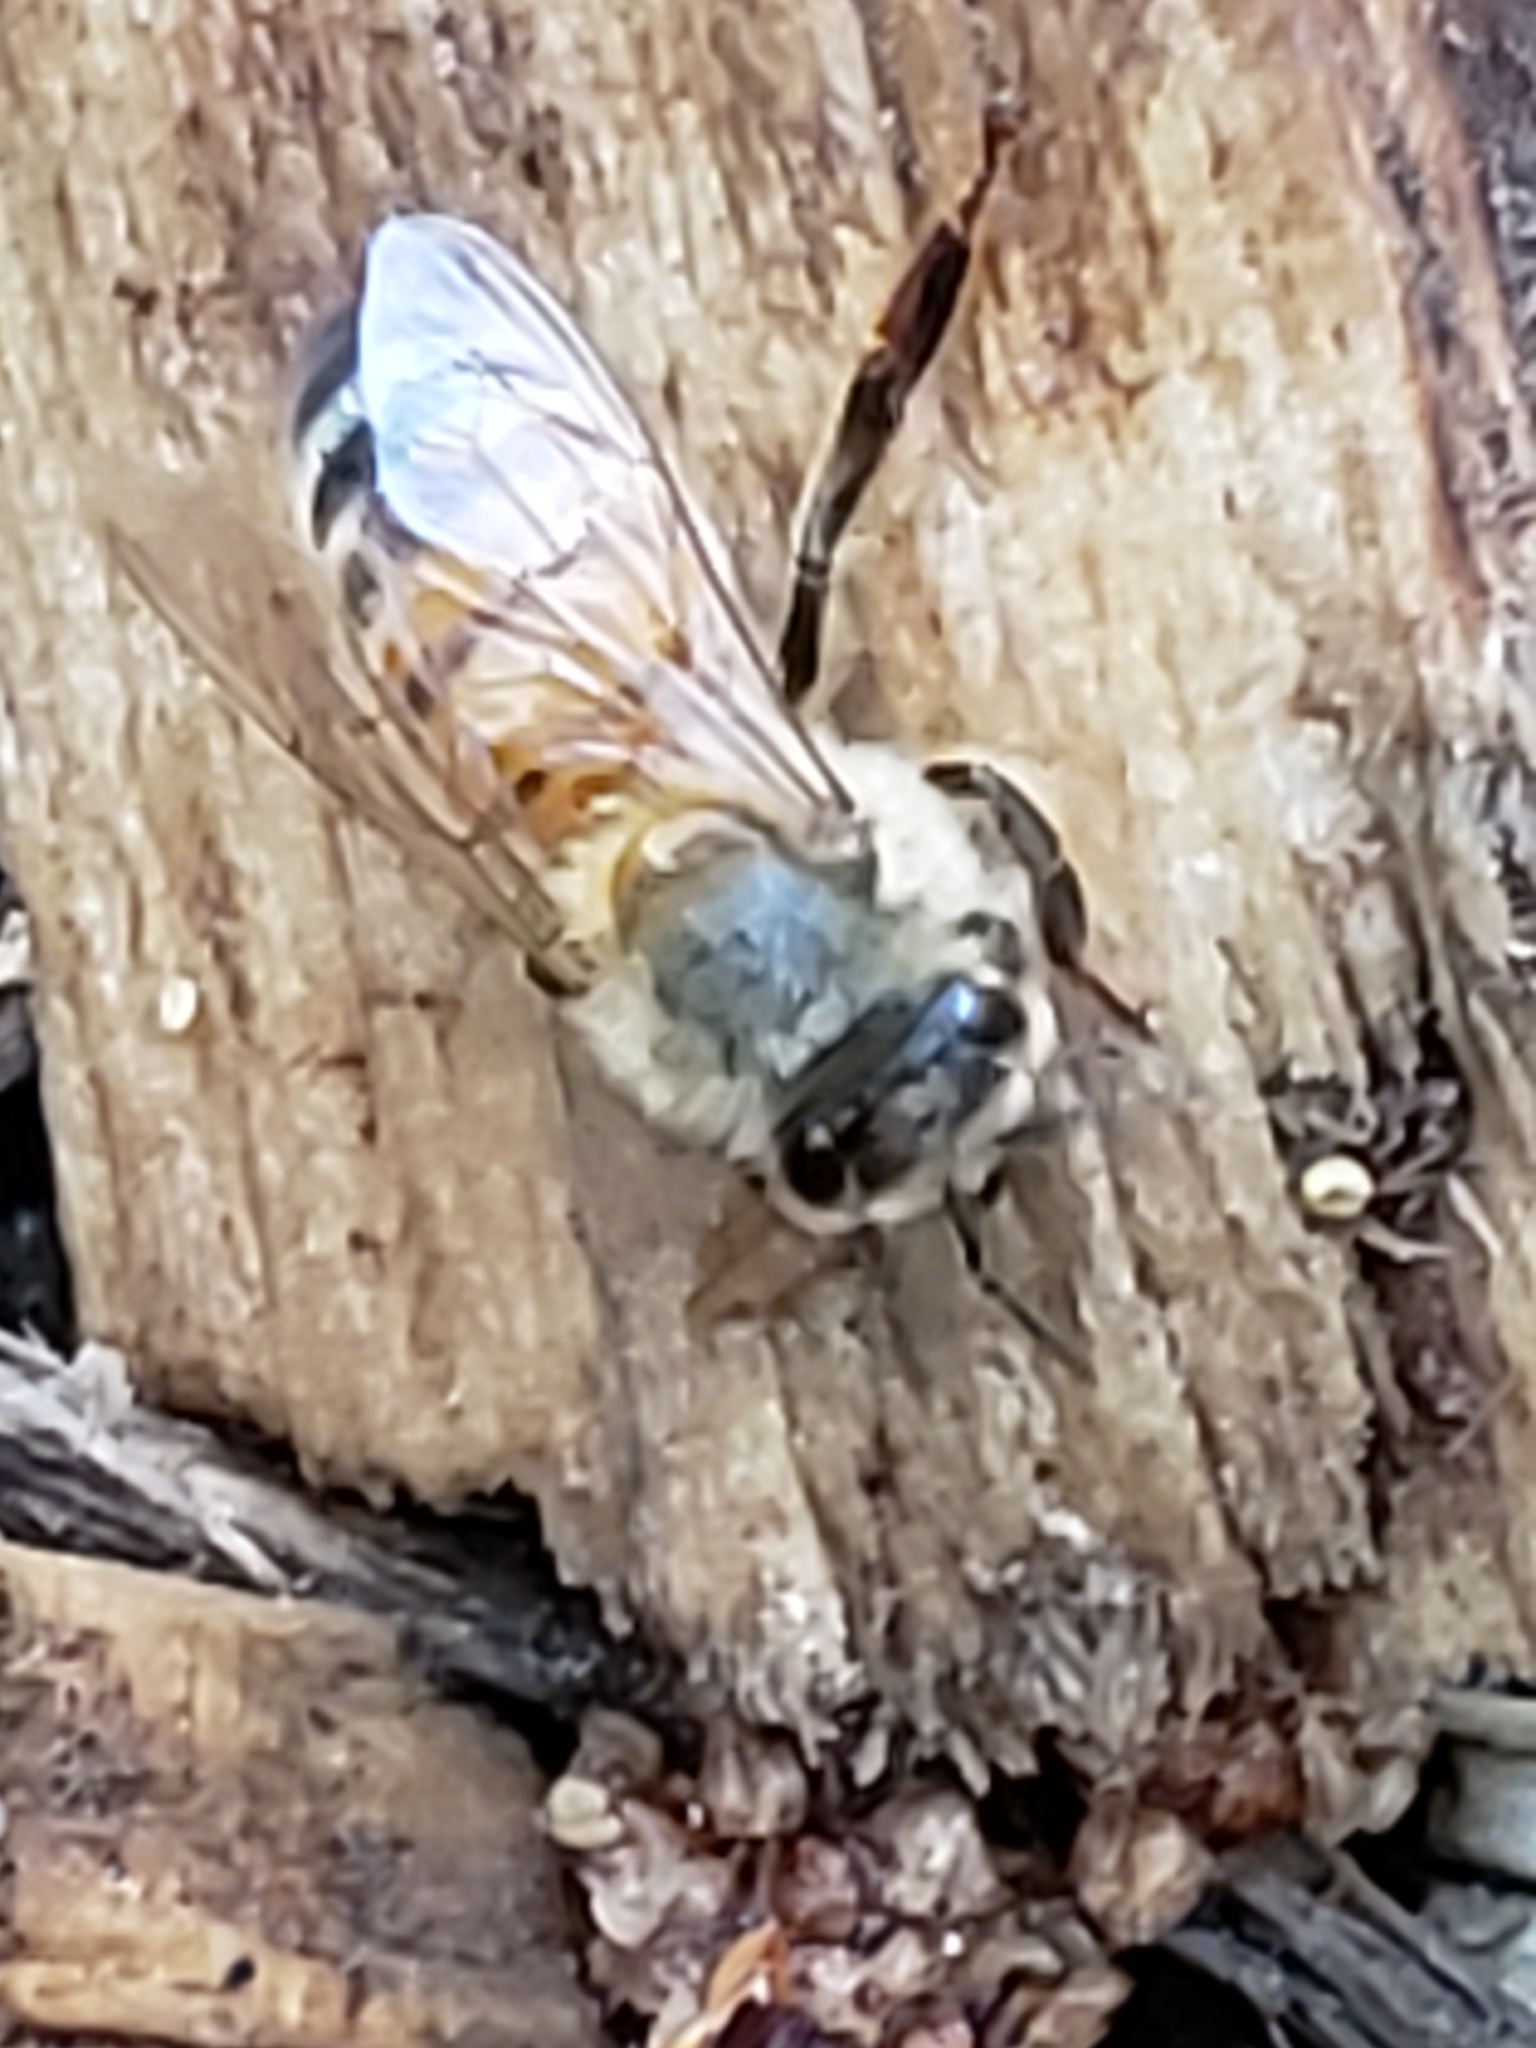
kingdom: Animalia
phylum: Arthropoda
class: Insecta
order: Hymenoptera
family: Apidae
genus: Apis
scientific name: Apis mellifera
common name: Honey bee
